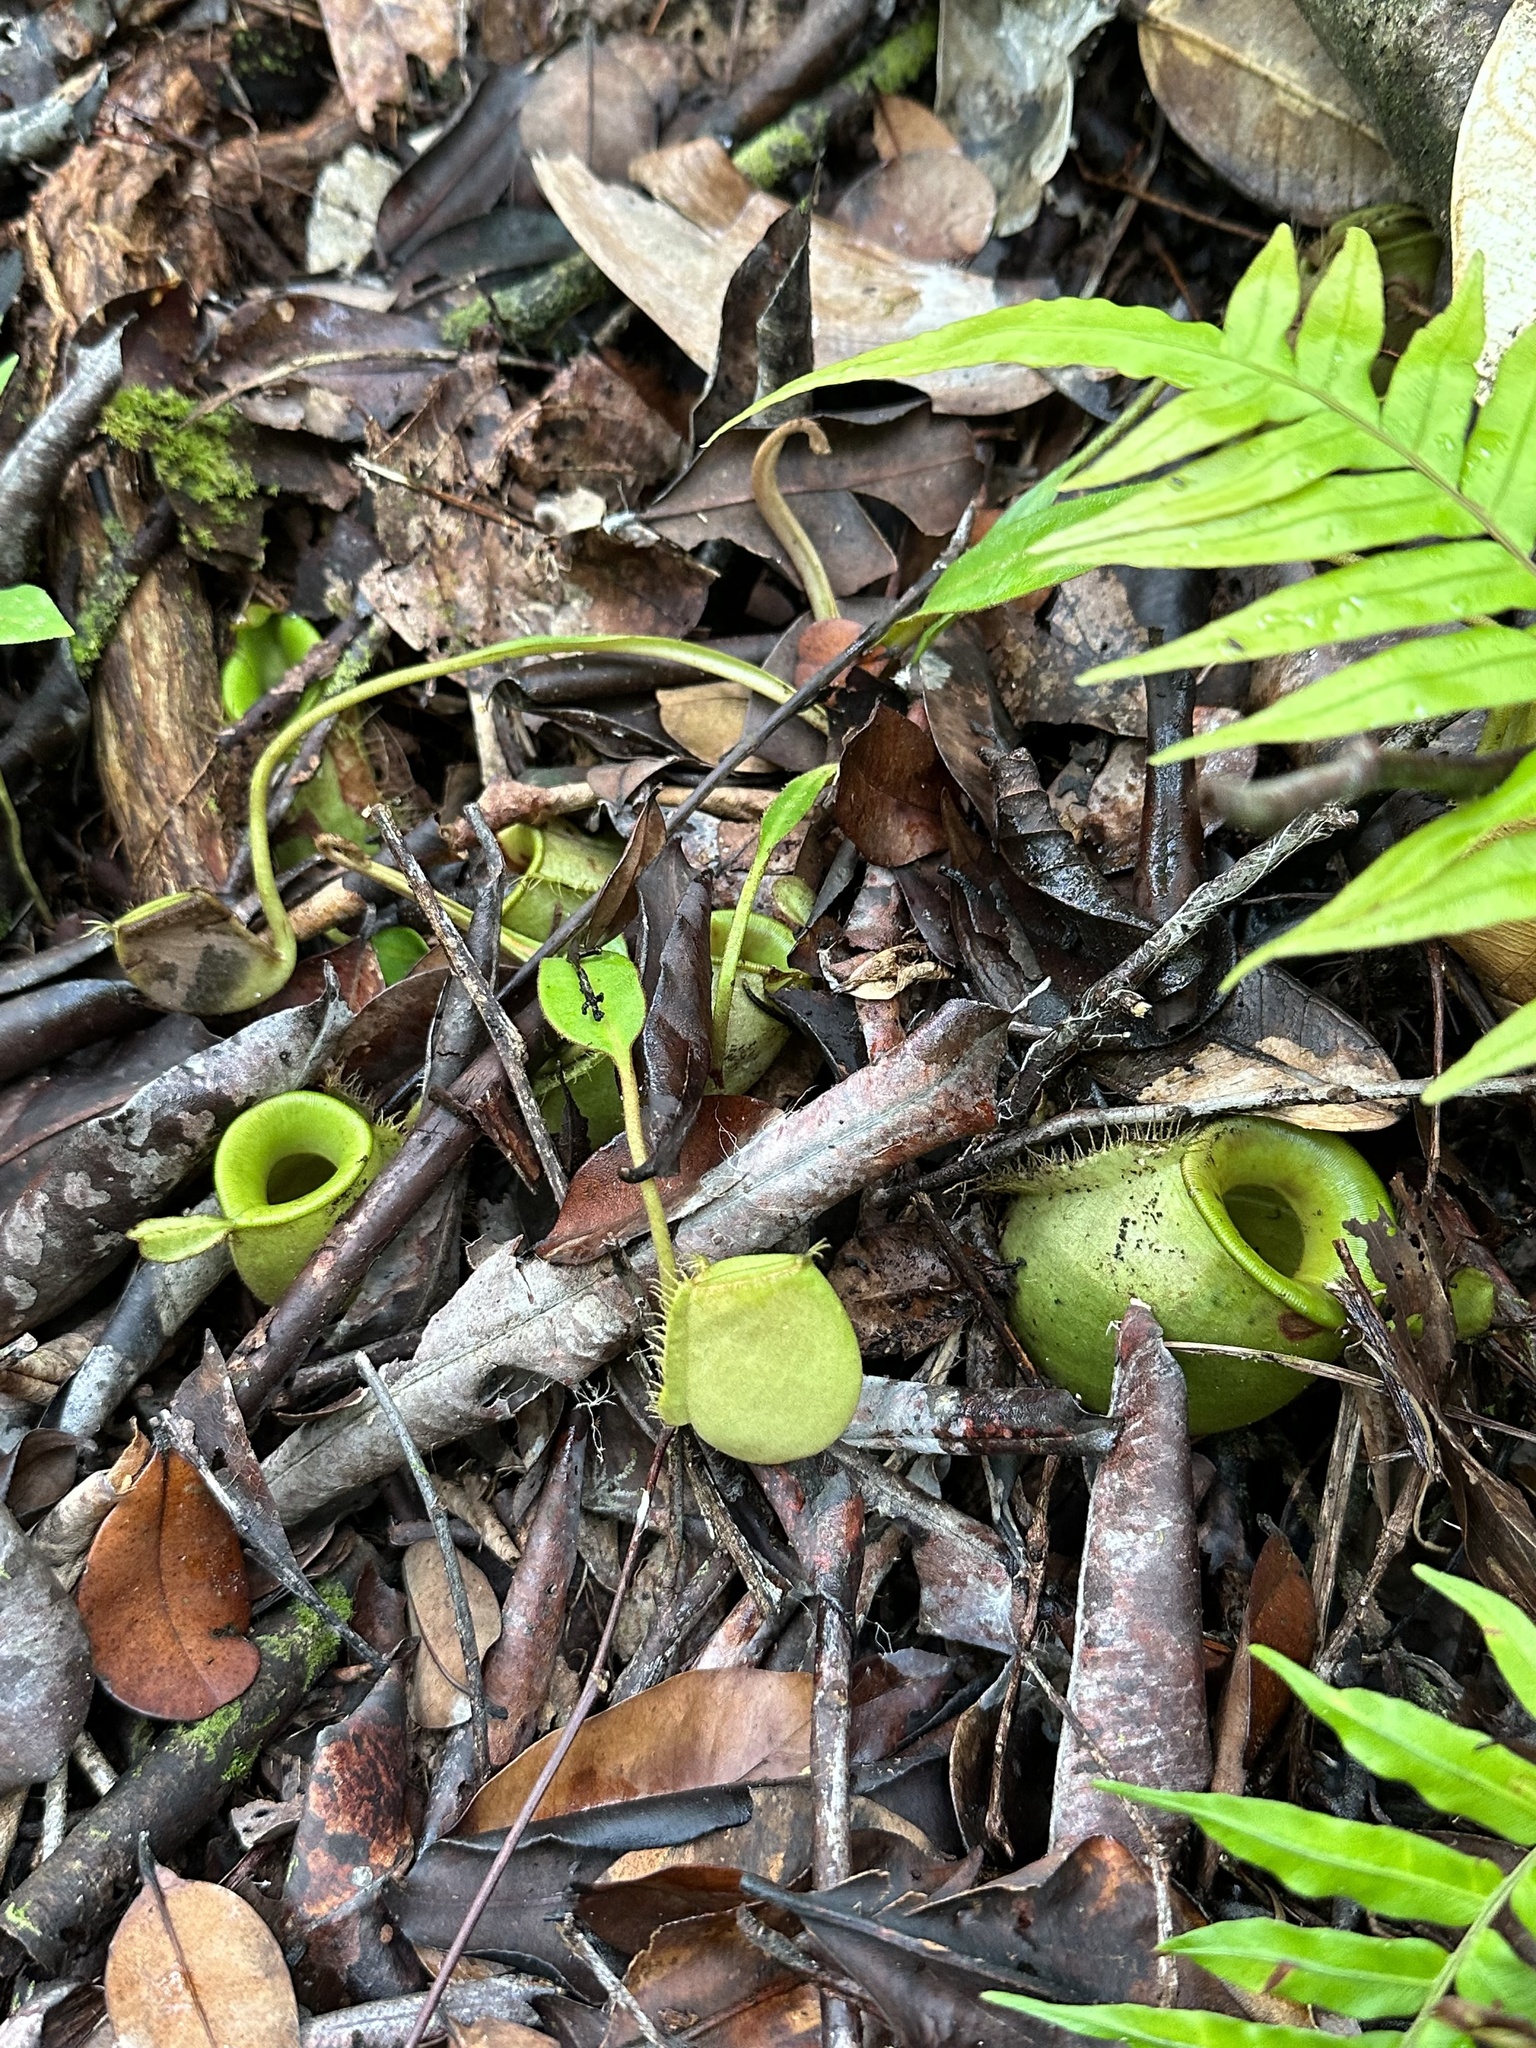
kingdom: Plantae
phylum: Tracheophyta
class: Magnoliopsida
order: Caryophyllales
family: Nepenthaceae
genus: Nepenthes
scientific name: Nepenthes ampullaria
